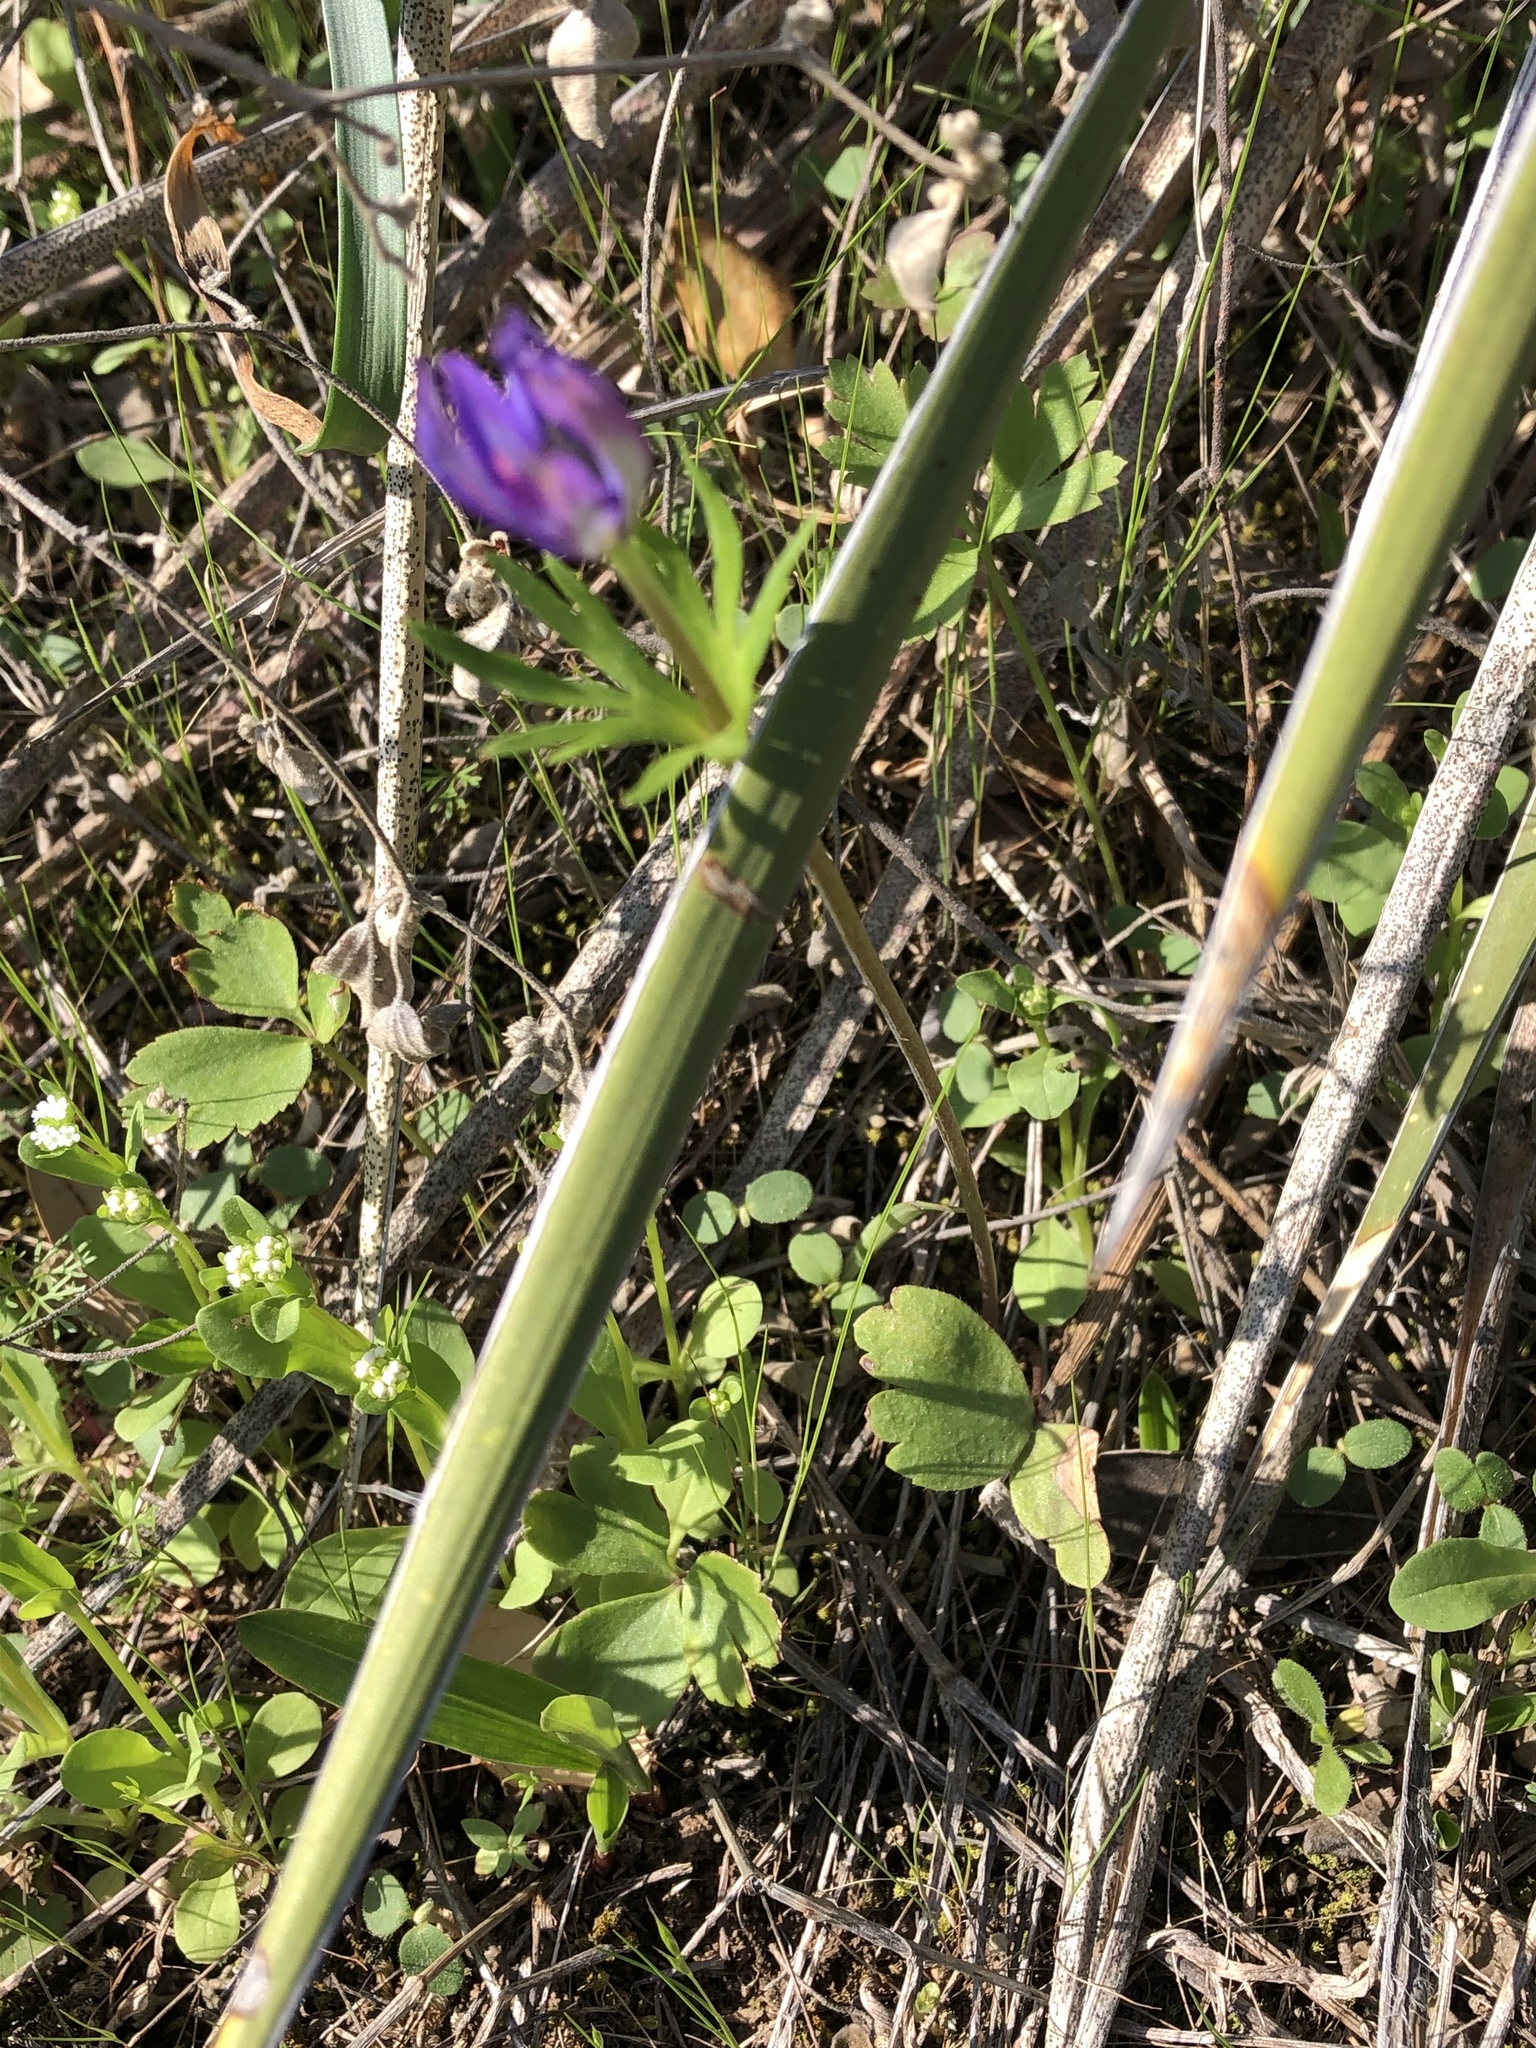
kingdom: Plantae
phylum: Tracheophyta
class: Magnoliopsida
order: Ranunculales
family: Ranunculaceae
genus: Anemone
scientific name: Anemone berlandieri
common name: Ten-petal anemone
